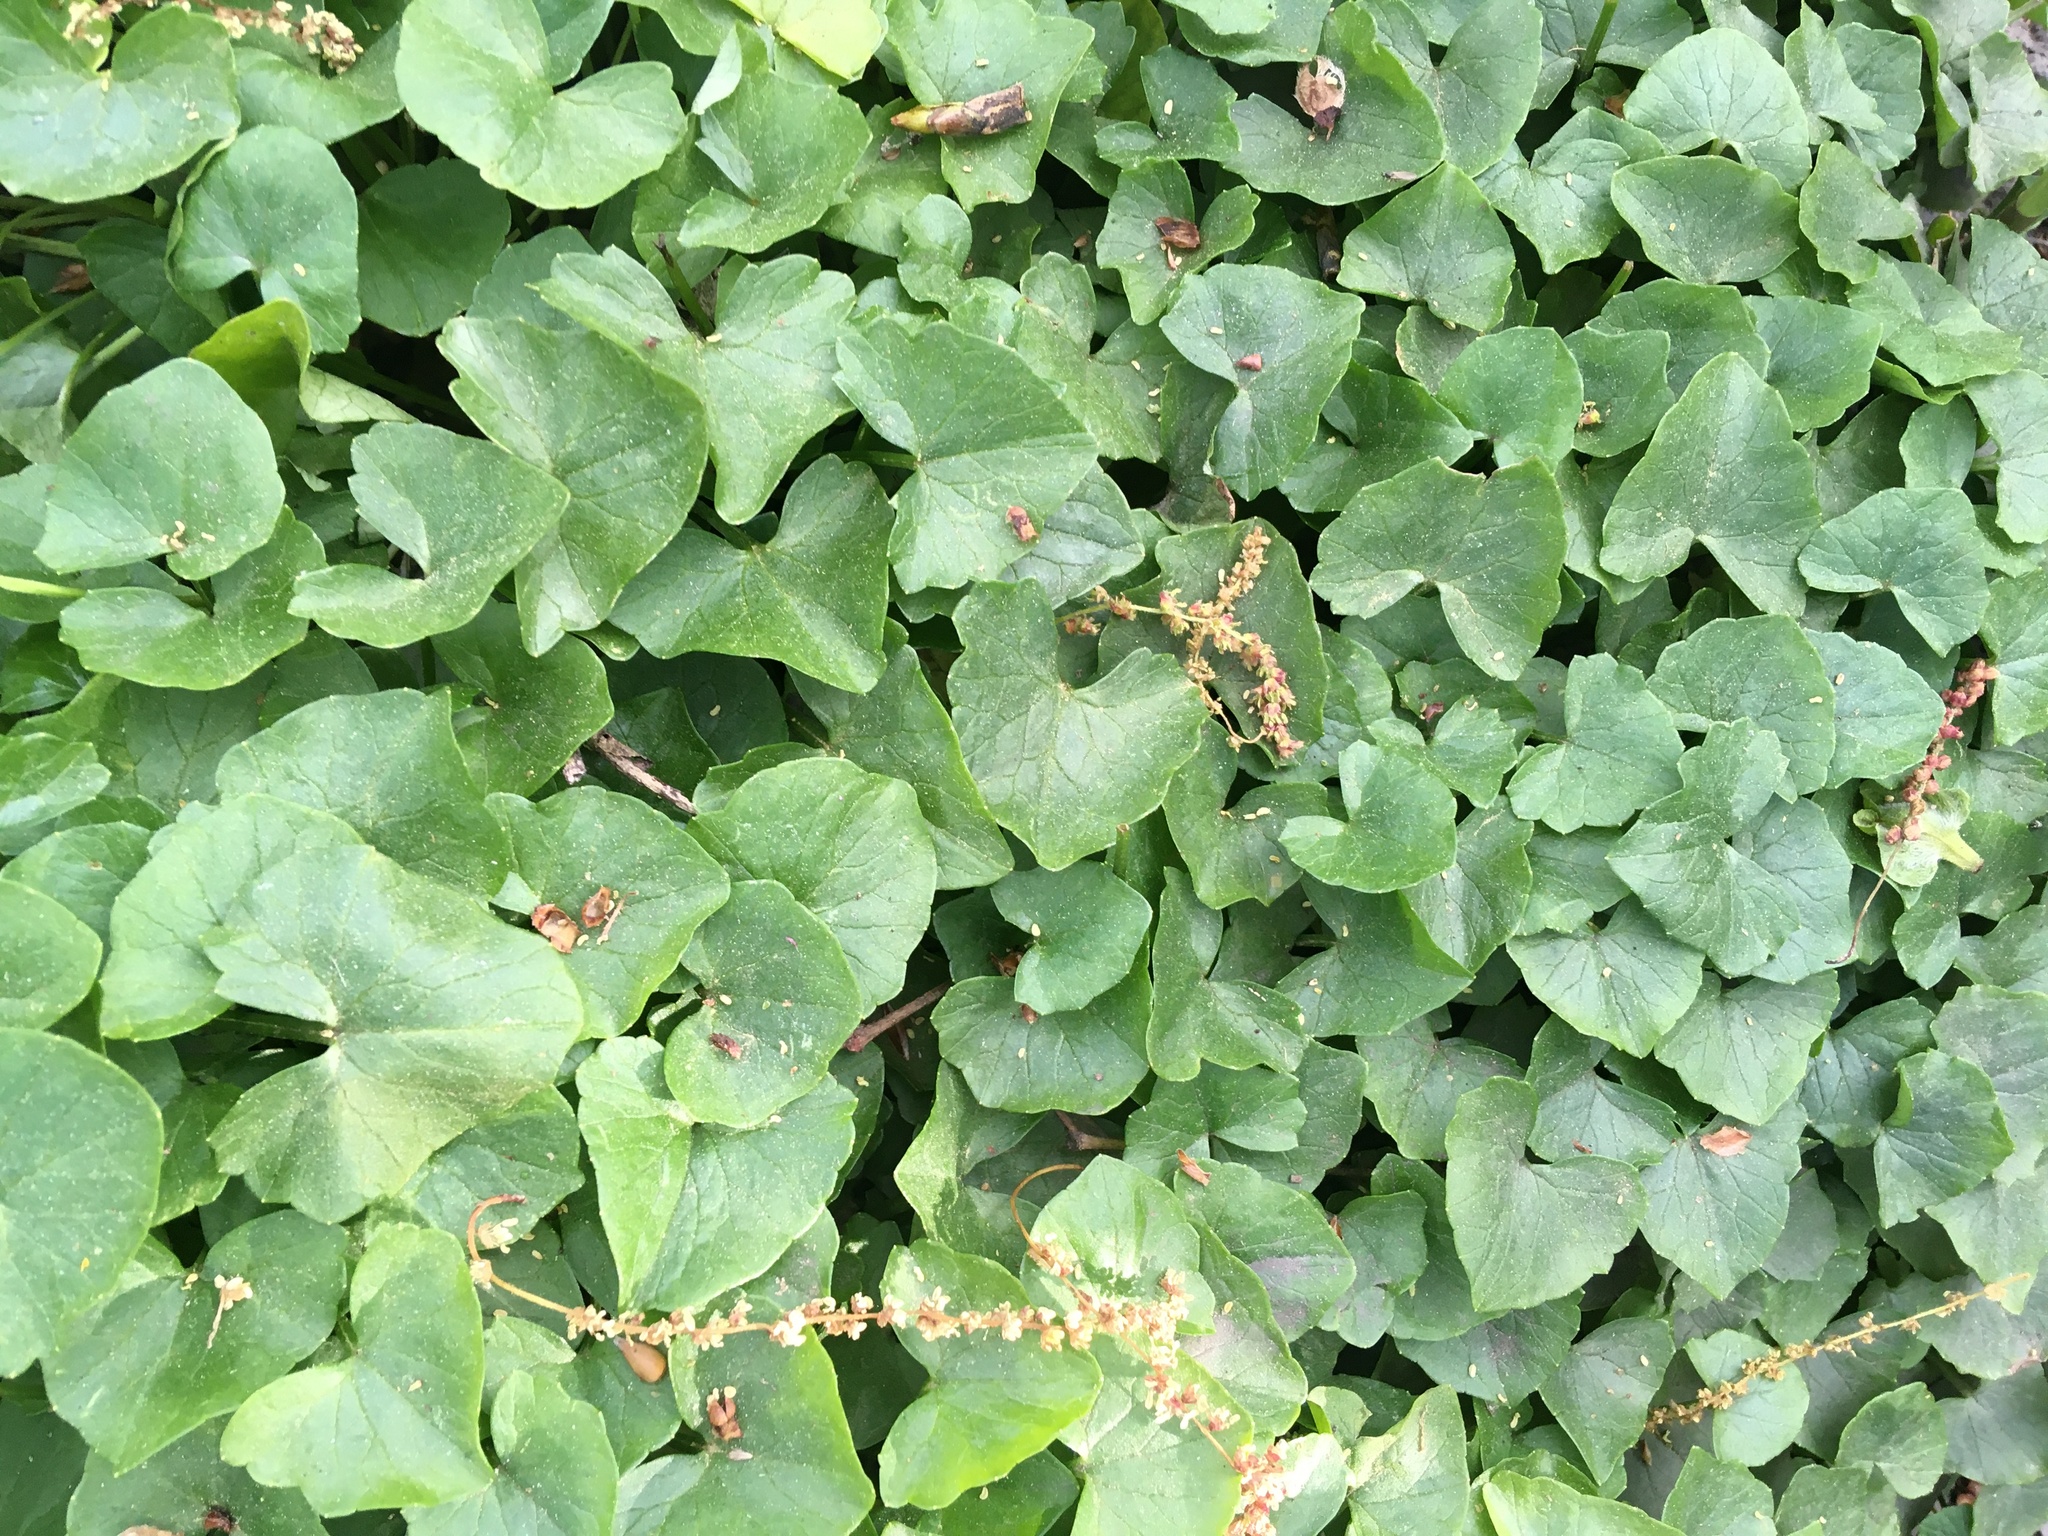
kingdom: Plantae
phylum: Tracheophyta
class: Magnoliopsida
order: Ranunculales
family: Ranunculaceae
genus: Ficaria
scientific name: Ficaria verna
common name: Lesser celandine
